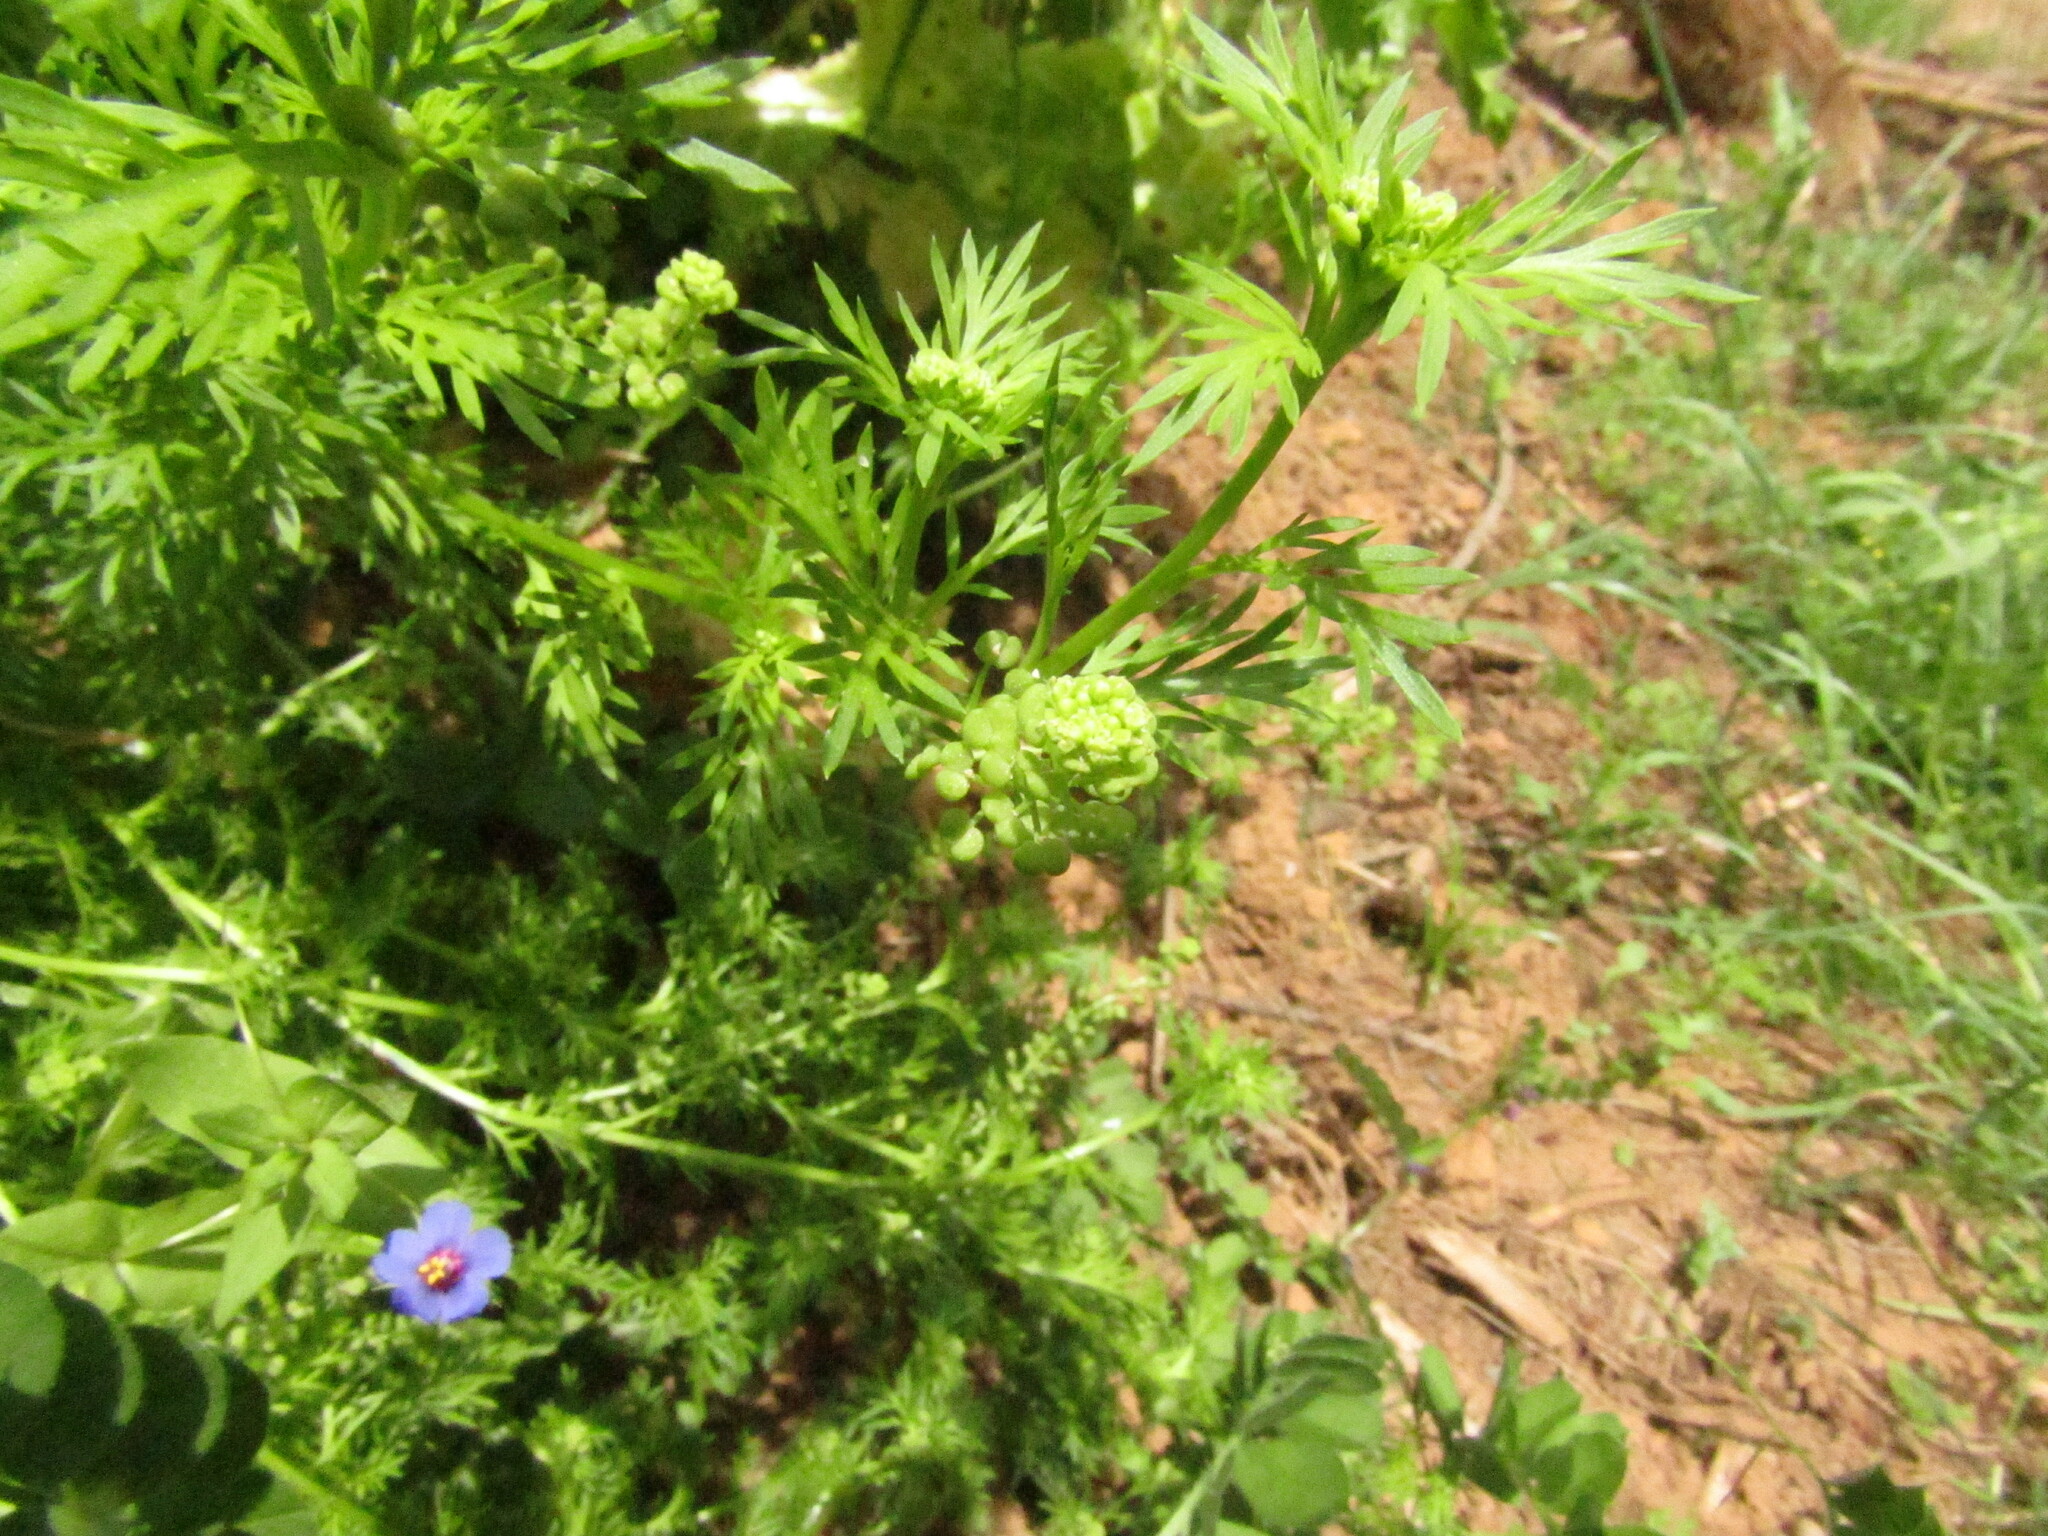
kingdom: Plantae
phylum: Tracheophyta
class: Magnoliopsida
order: Brassicales
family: Brassicaceae
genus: Lepidium
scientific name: Lepidium didymum
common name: Lesser swinecress
